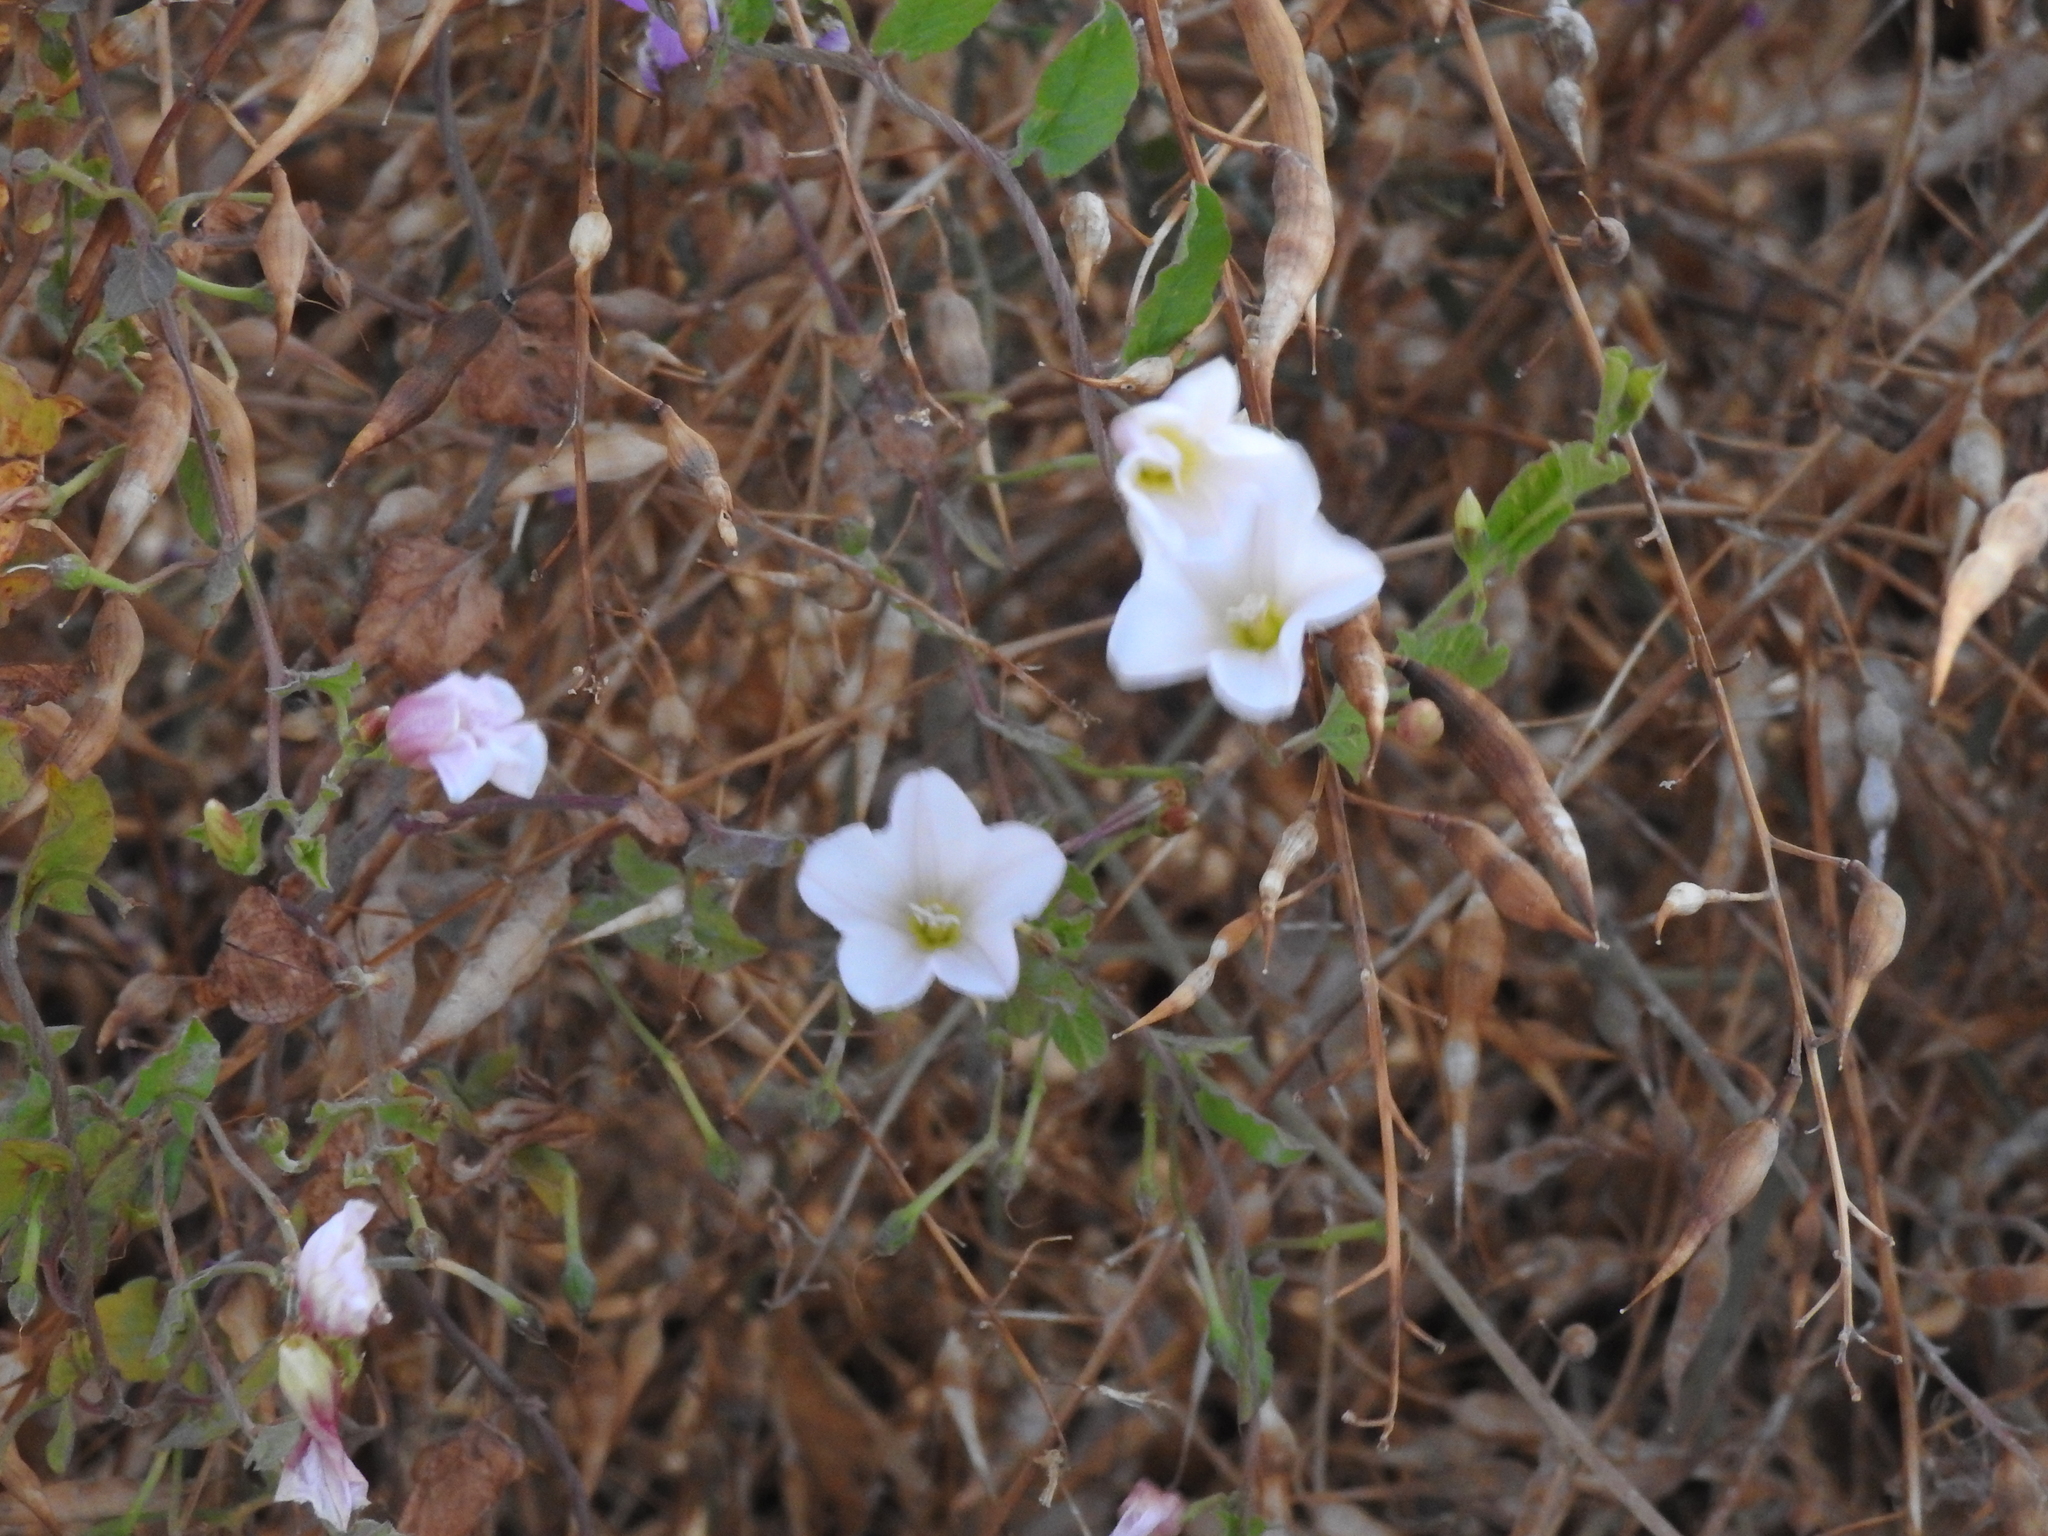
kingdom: Plantae
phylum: Tracheophyta
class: Magnoliopsida
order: Solanales
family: Convolvulaceae
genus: Convolvulus
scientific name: Convolvulus arvensis
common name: Field bindweed
